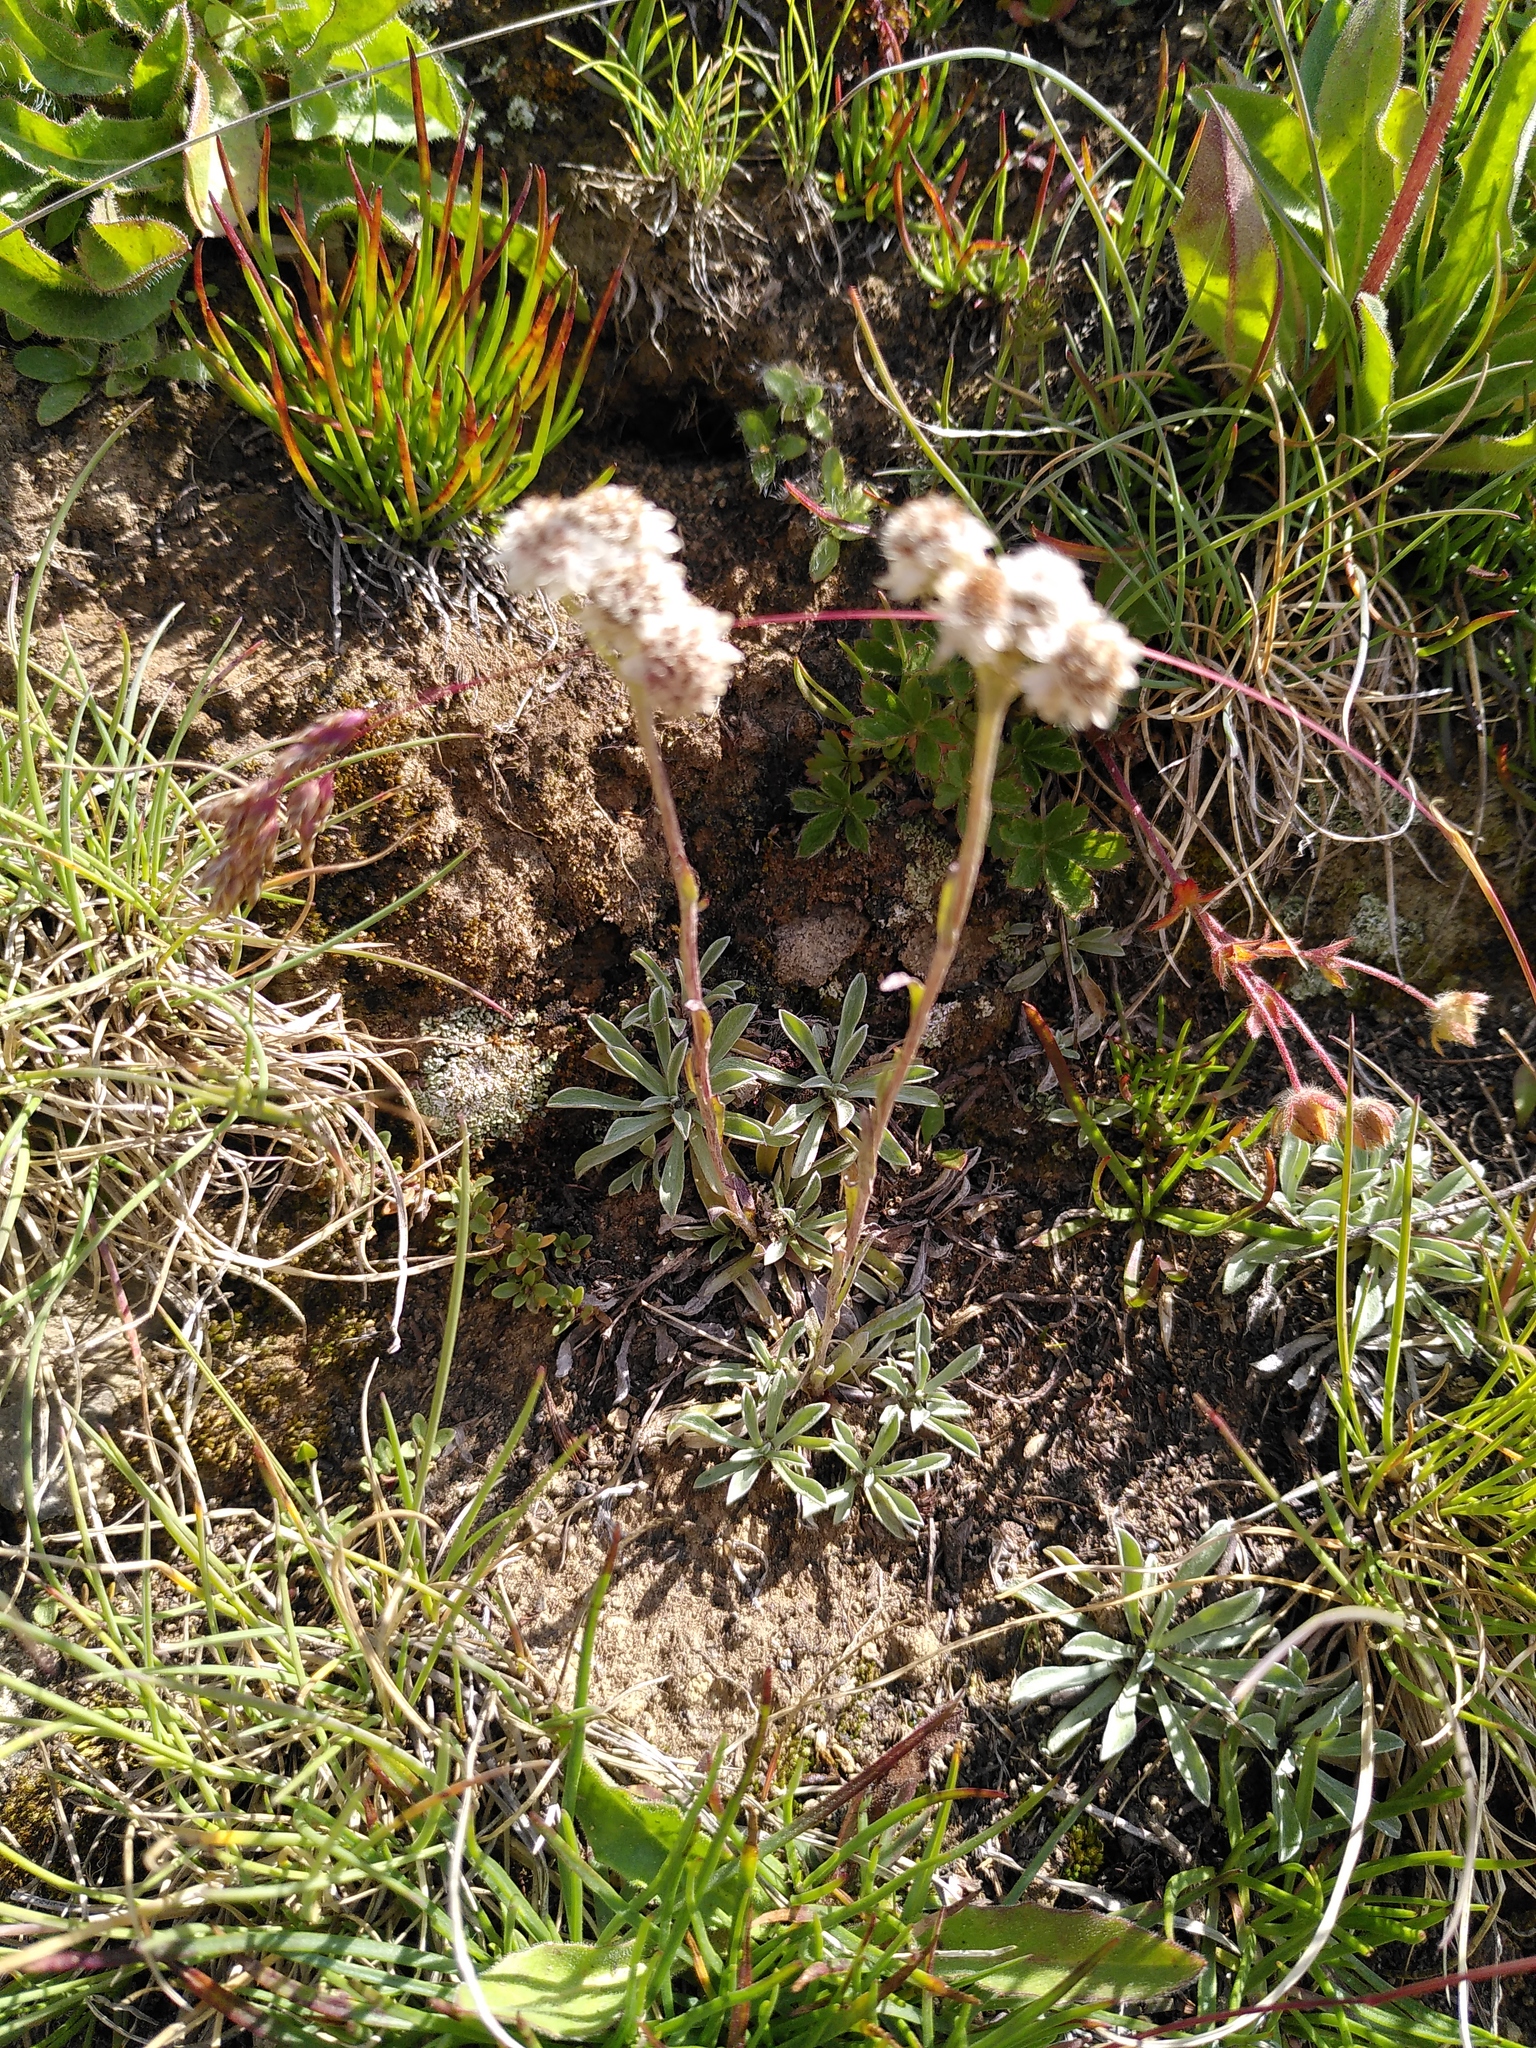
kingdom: Plantae
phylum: Tracheophyta
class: Magnoliopsida
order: Asterales
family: Asteraceae
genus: Antennaria
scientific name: Antennaria dioica
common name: Mountain everlasting
